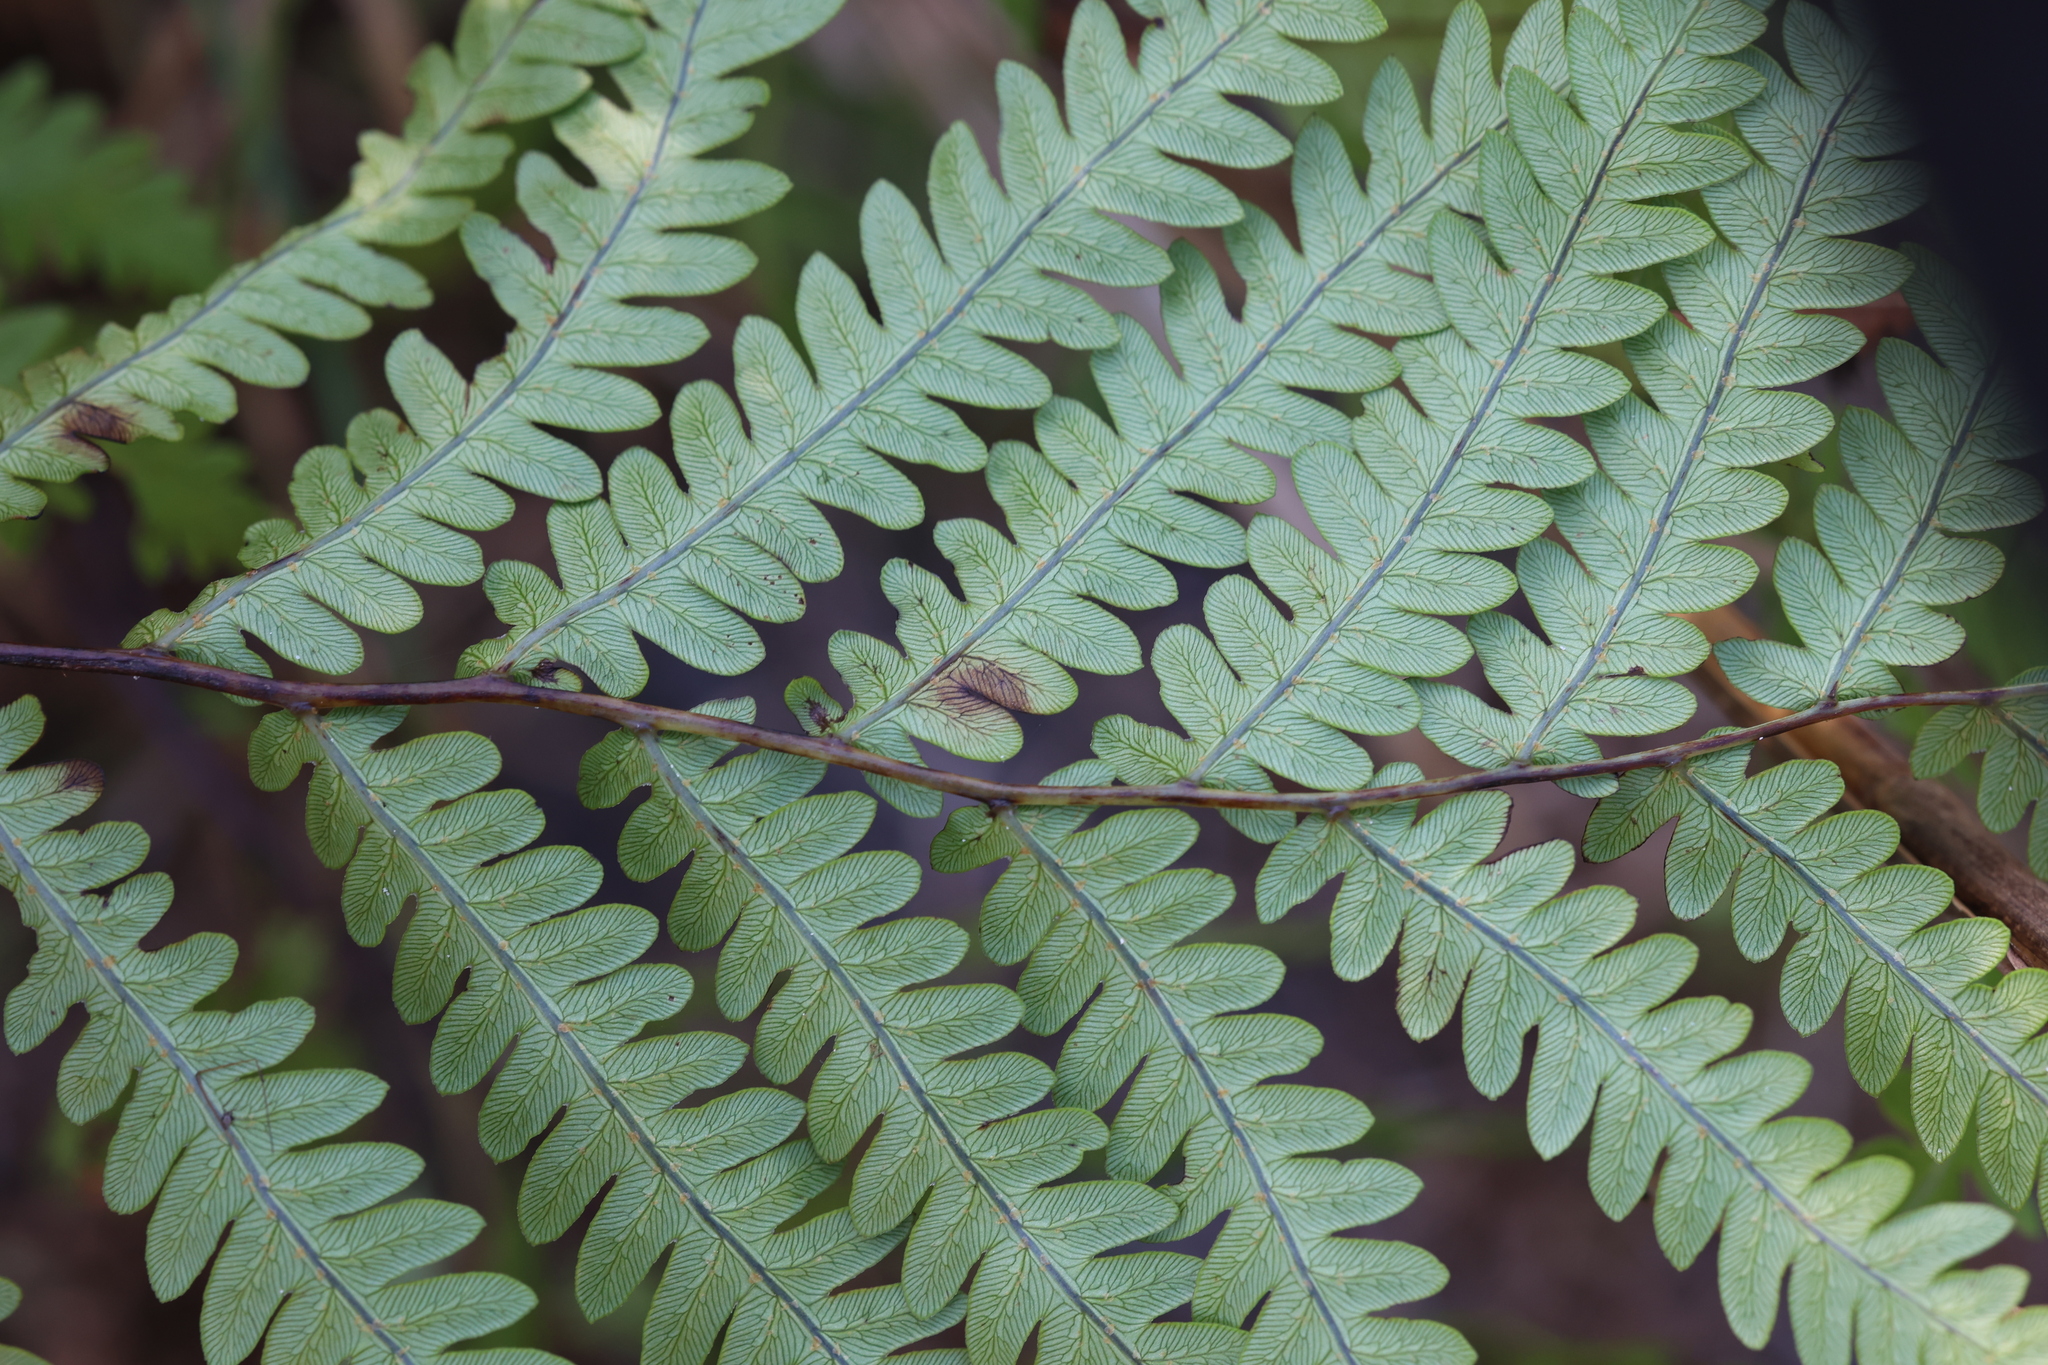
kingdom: Plantae
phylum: Tracheophyta
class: Polypodiopsida
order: Polypodiales
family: Blechnaceae
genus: Anchistea
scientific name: Anchistea virginica
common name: Virginia chain fern
